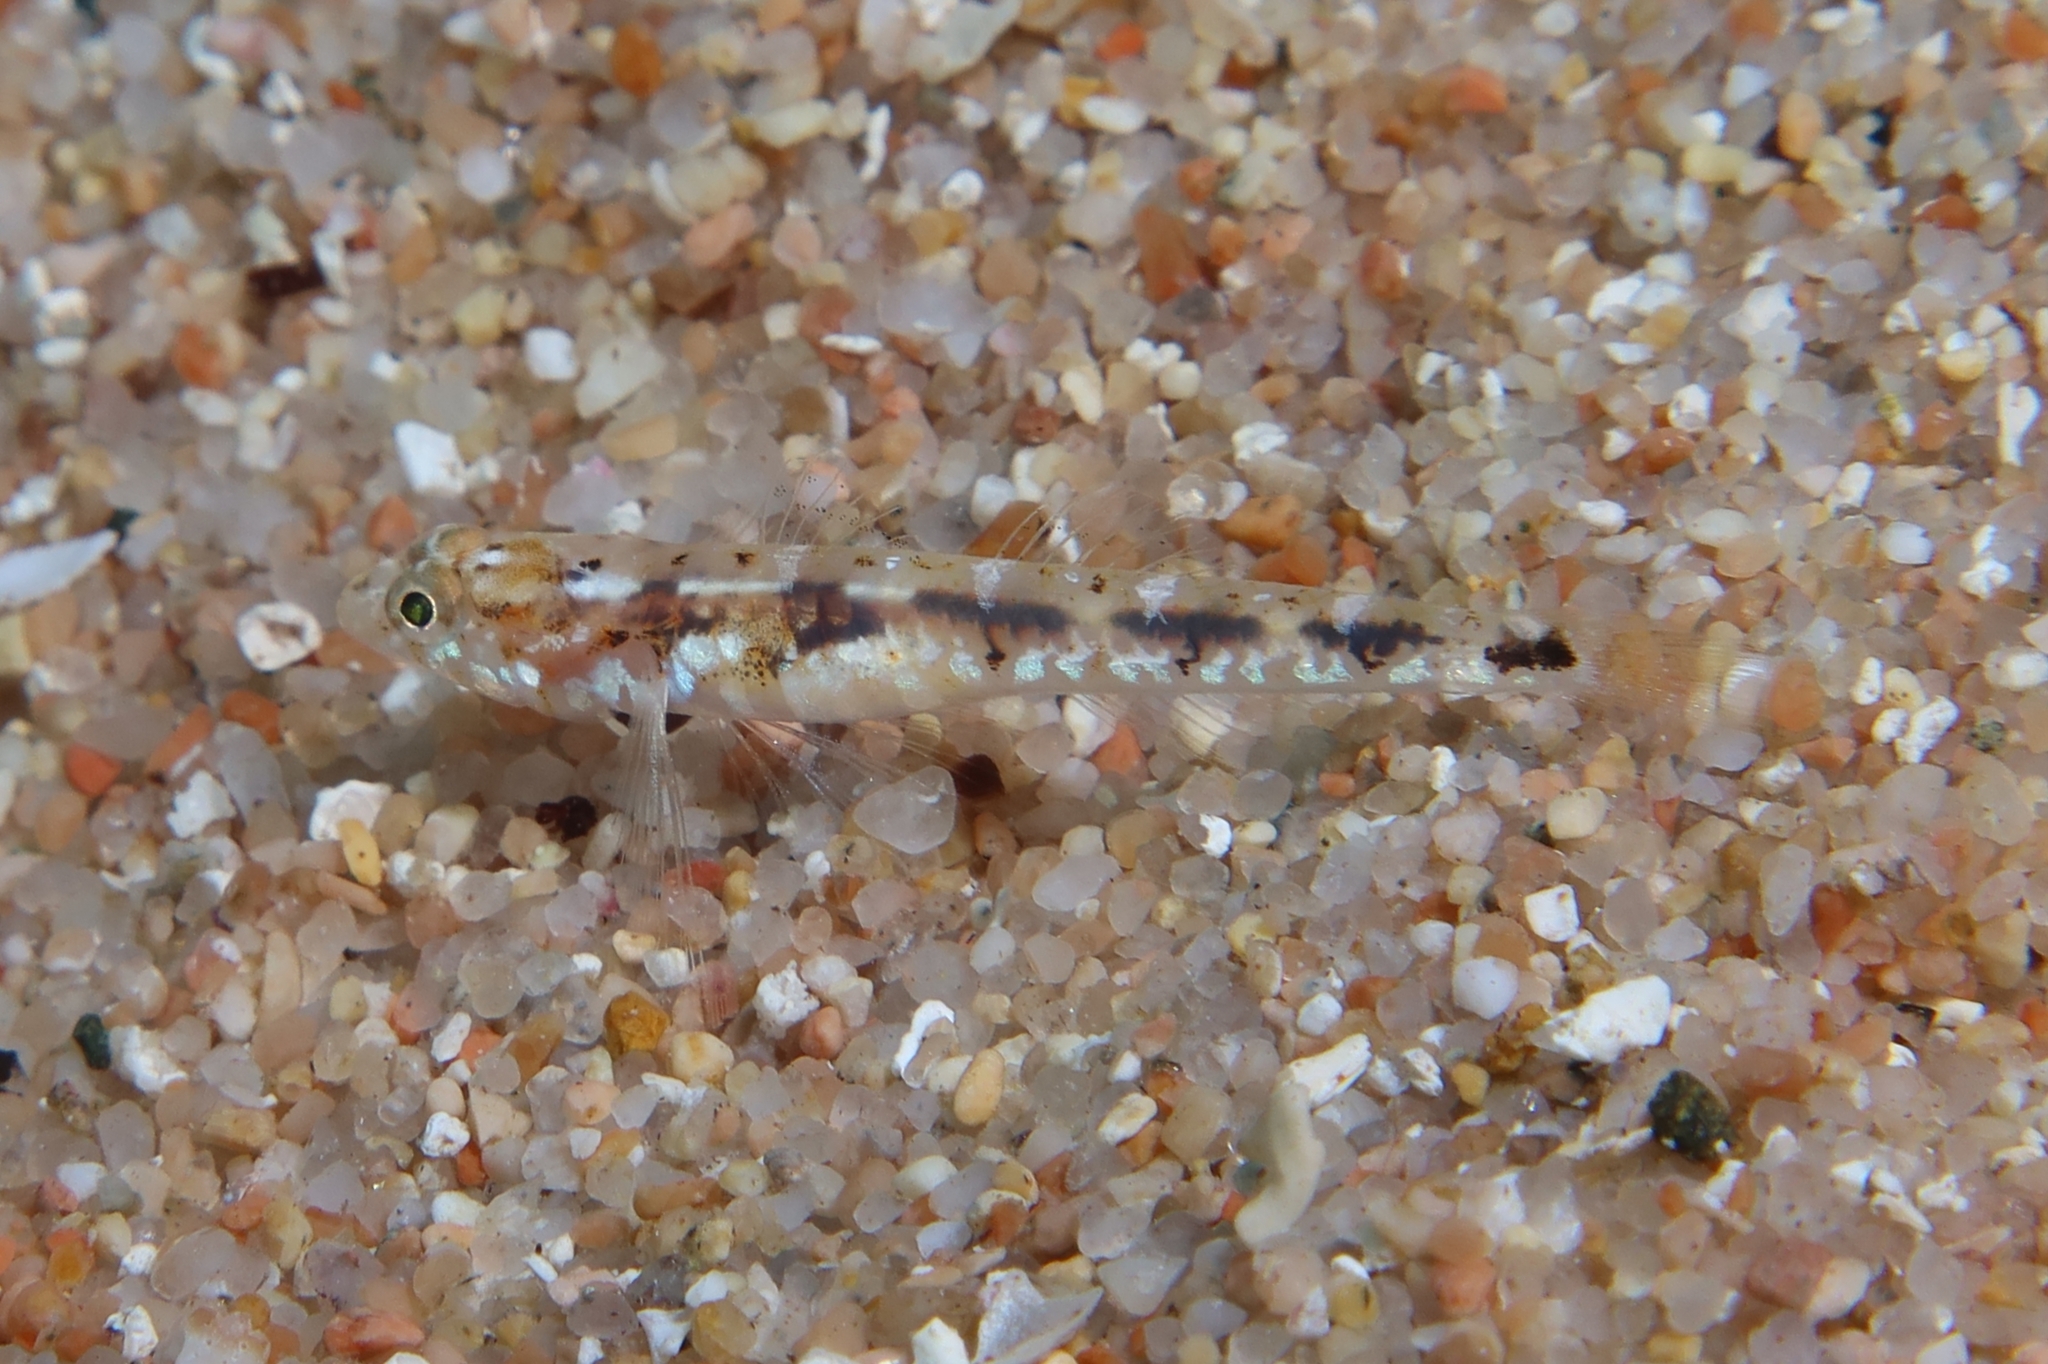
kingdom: Animalia
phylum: Chordata
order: Perciformes
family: Gobiidae
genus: Pomatoschistus
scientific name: Pomatoschistus bathi
